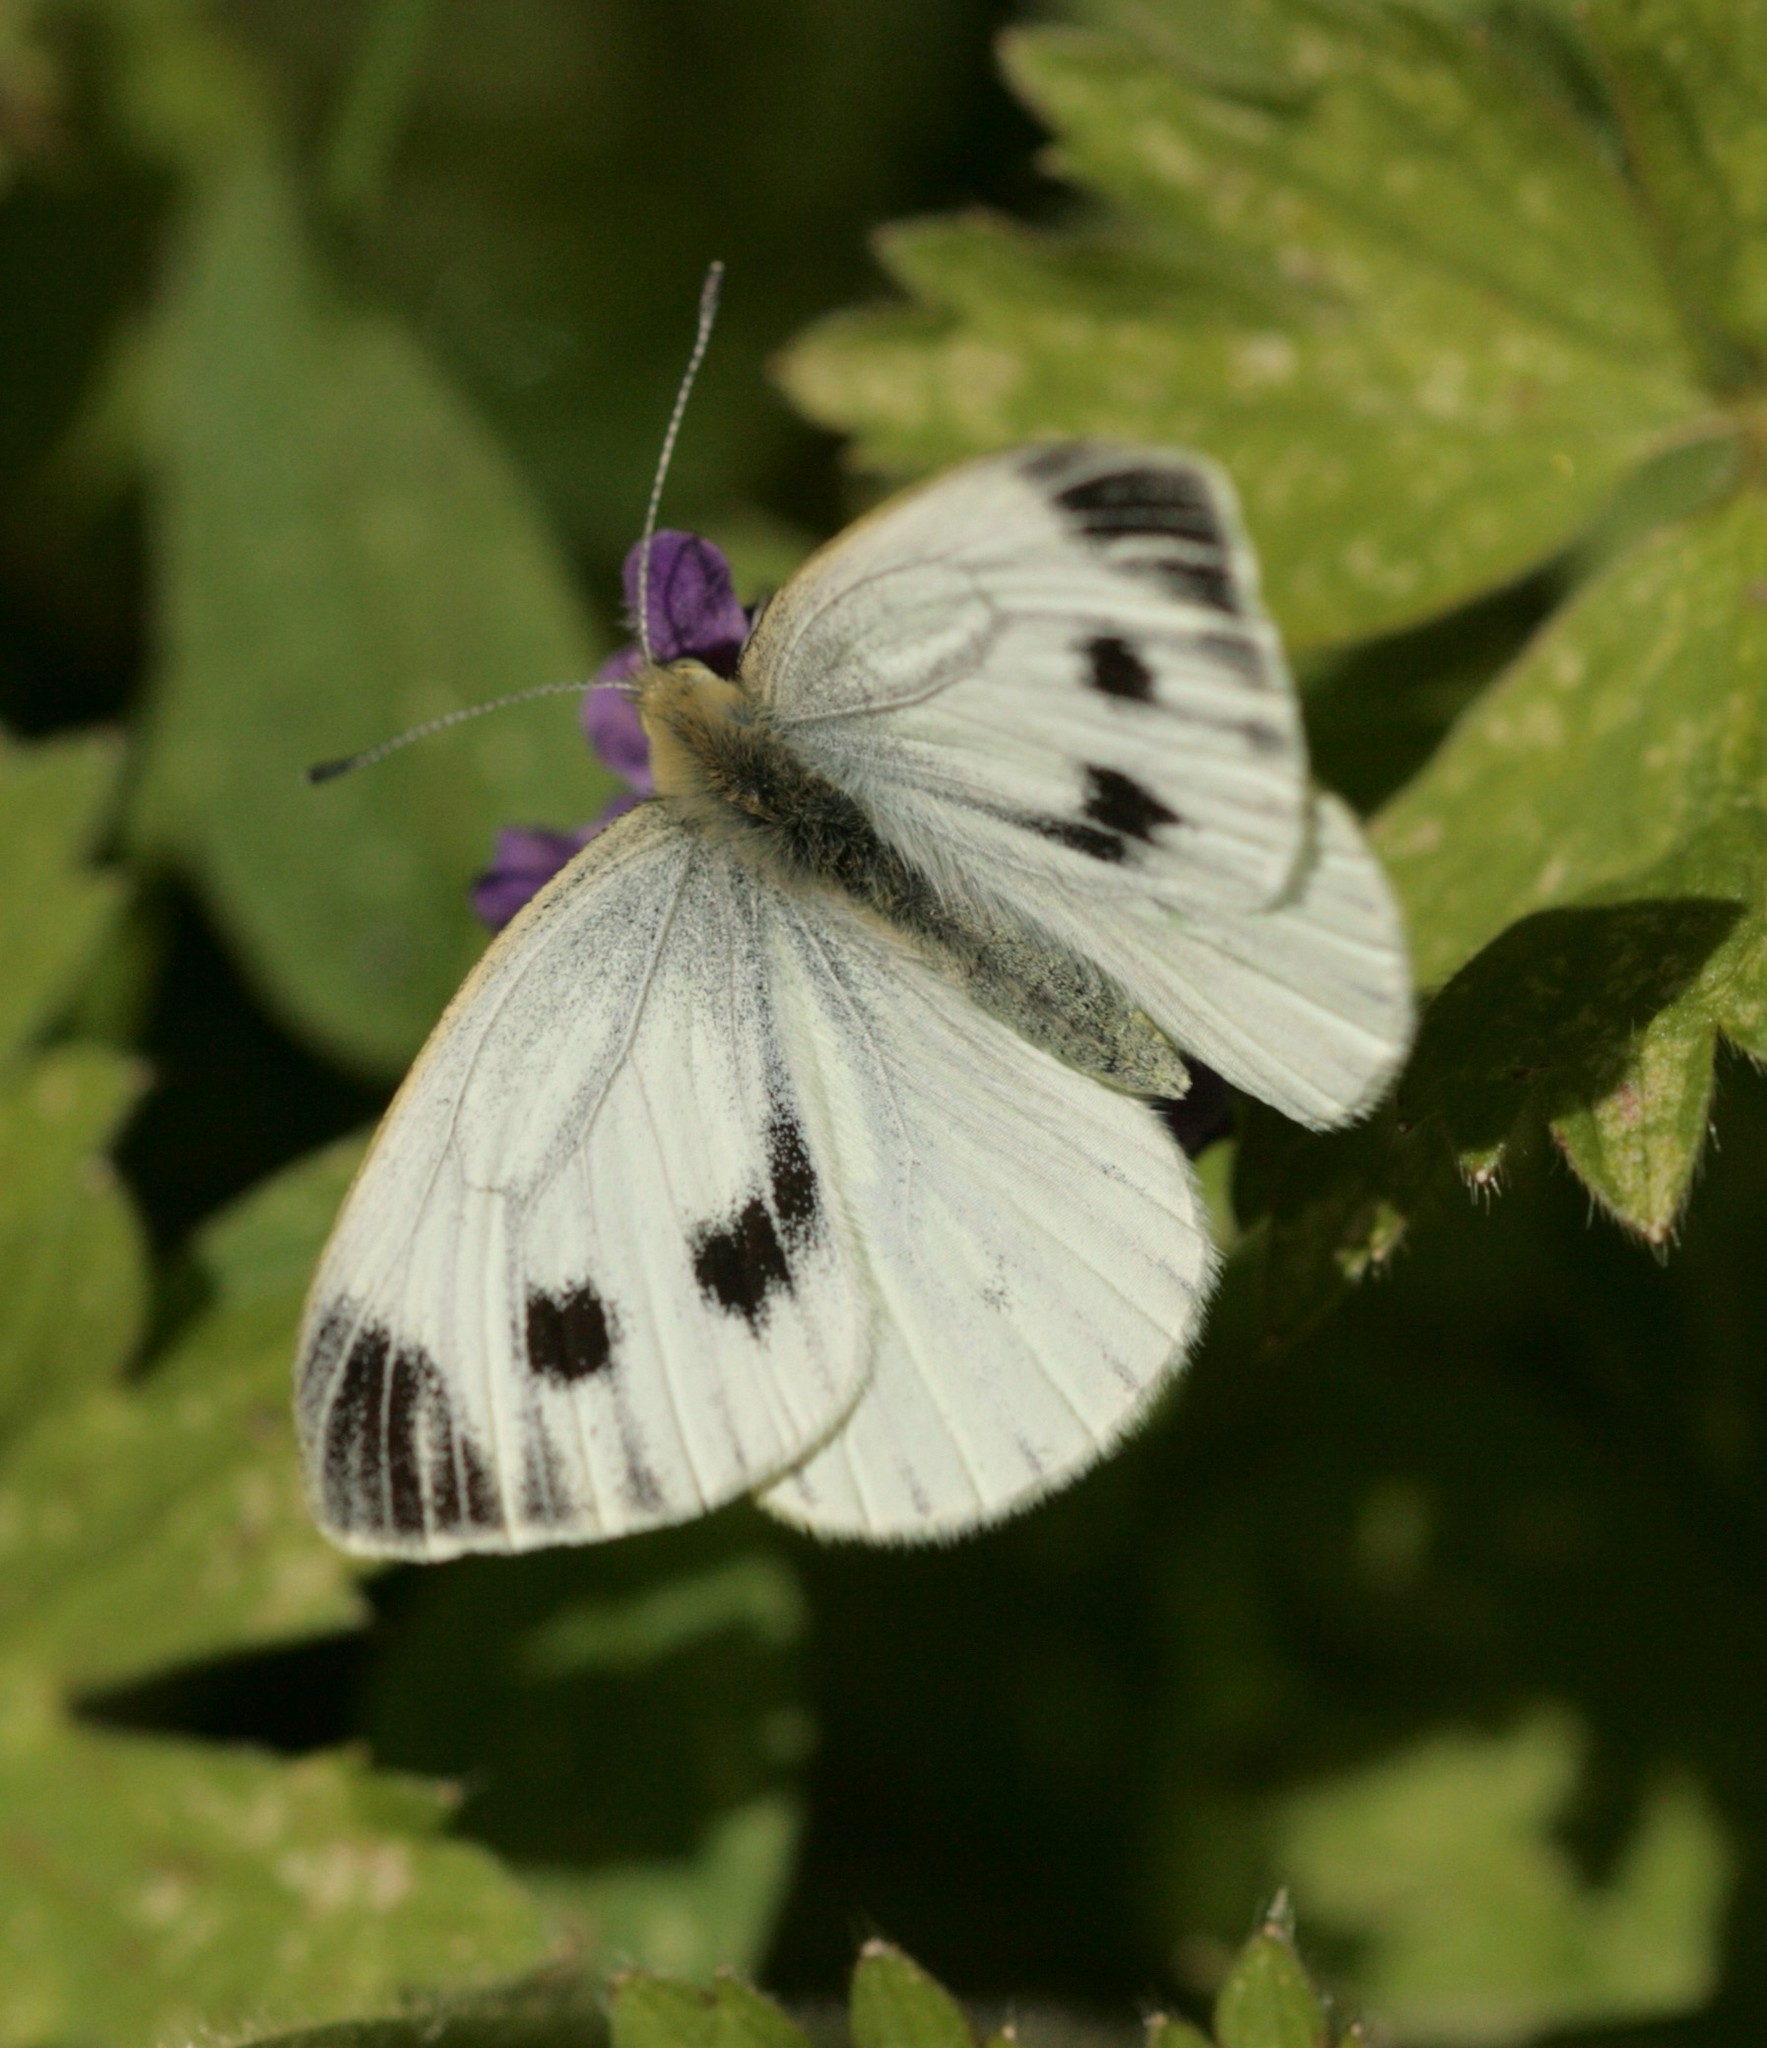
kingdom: Animalia
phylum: Arthropoda
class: Insecta
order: Lepidoptera
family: Pieridae
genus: Pieris
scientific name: Pieris napi
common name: Green-veined white
